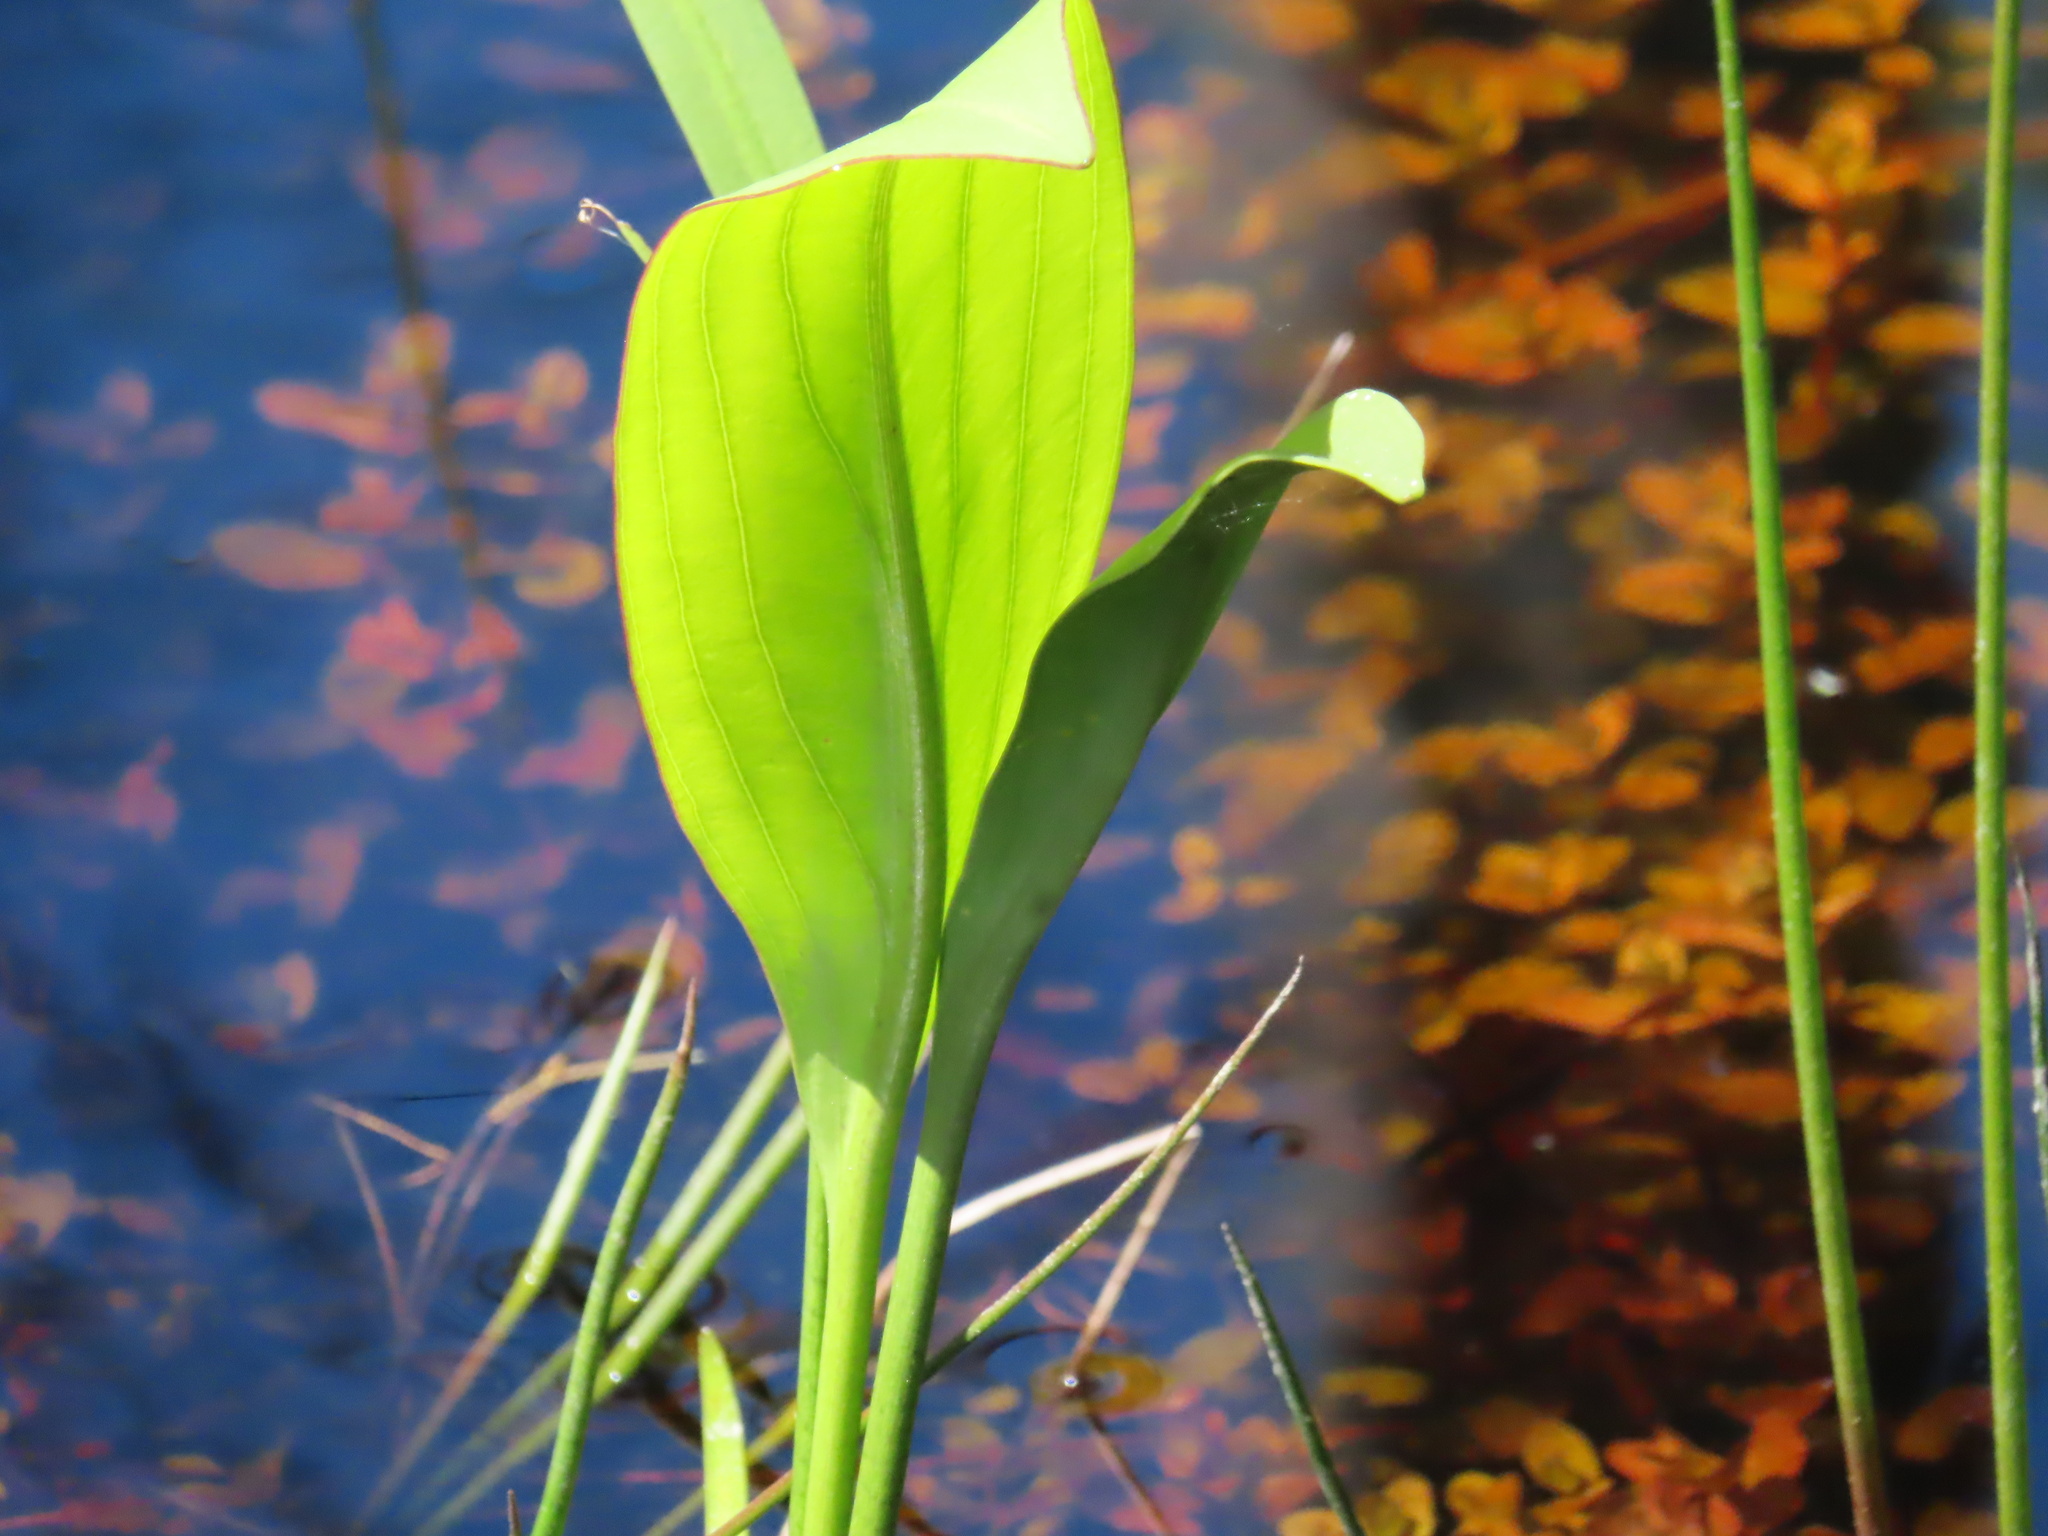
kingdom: Plantae
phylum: Tracheophyta
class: Liliopsida
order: Alismatales
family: Alismataceae
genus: Sagittaria
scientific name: Sagittaria lancifolia
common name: Lance-leaf arrowhead
